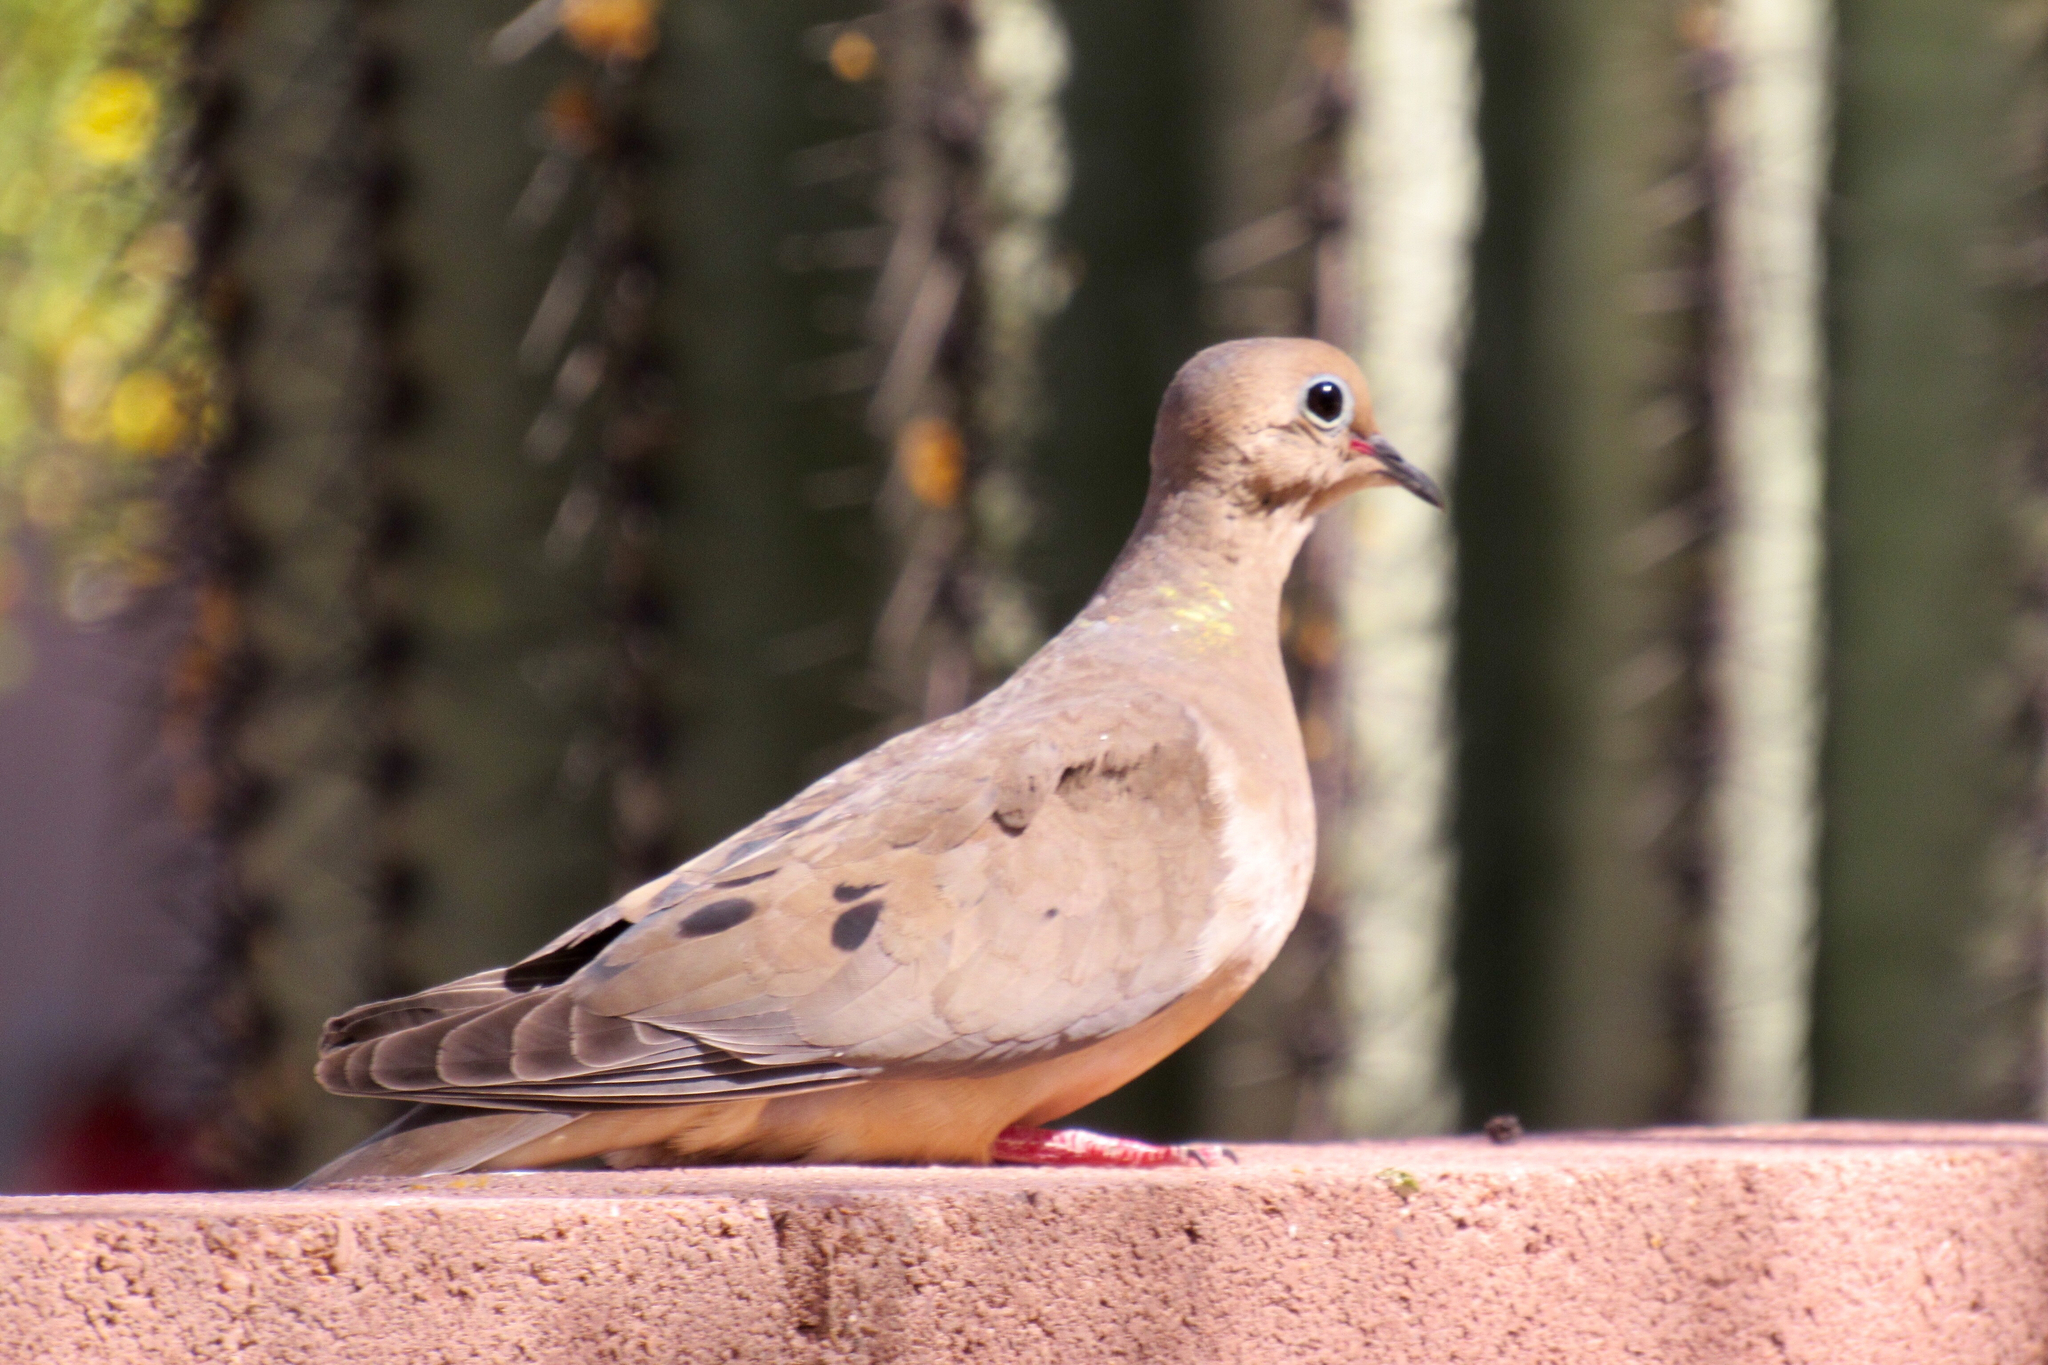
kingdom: Animalia
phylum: Chordata
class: Aves
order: Columbiformes
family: Columbidae
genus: Zenaida
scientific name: Zenaida macroura
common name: Mourning dove
